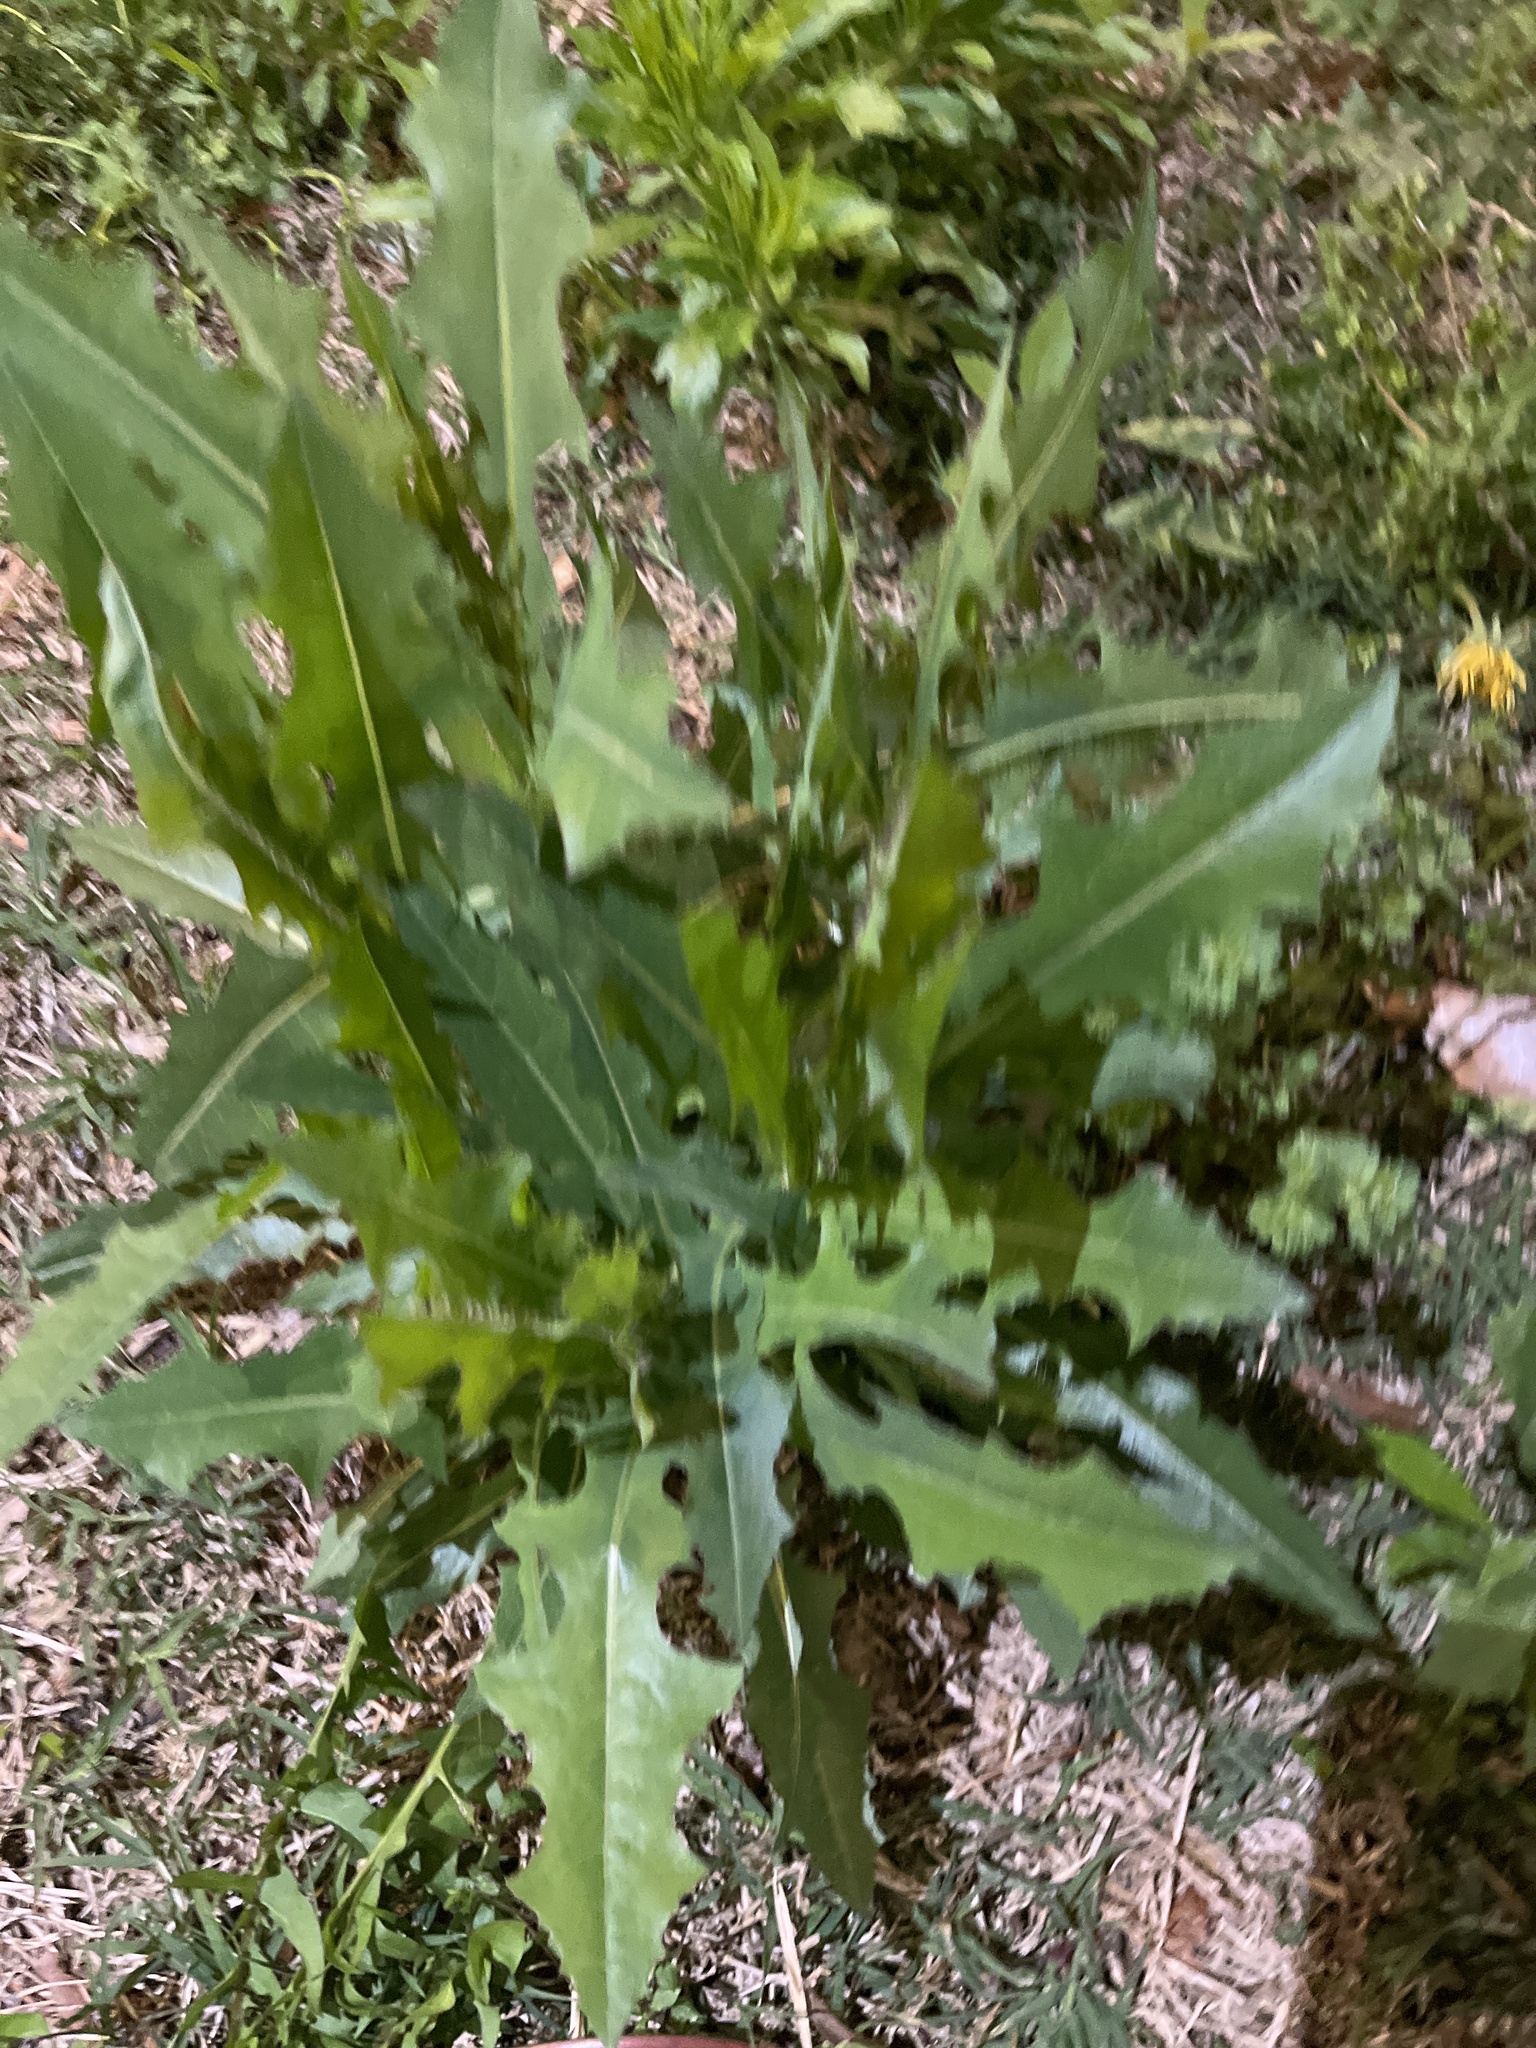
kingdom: Plantae
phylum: Tracheophyta
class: Magnoliopsida
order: Asterales
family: Asteraceae
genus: Lactuca
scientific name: Lactuca serriola
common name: Prickly lettuce
